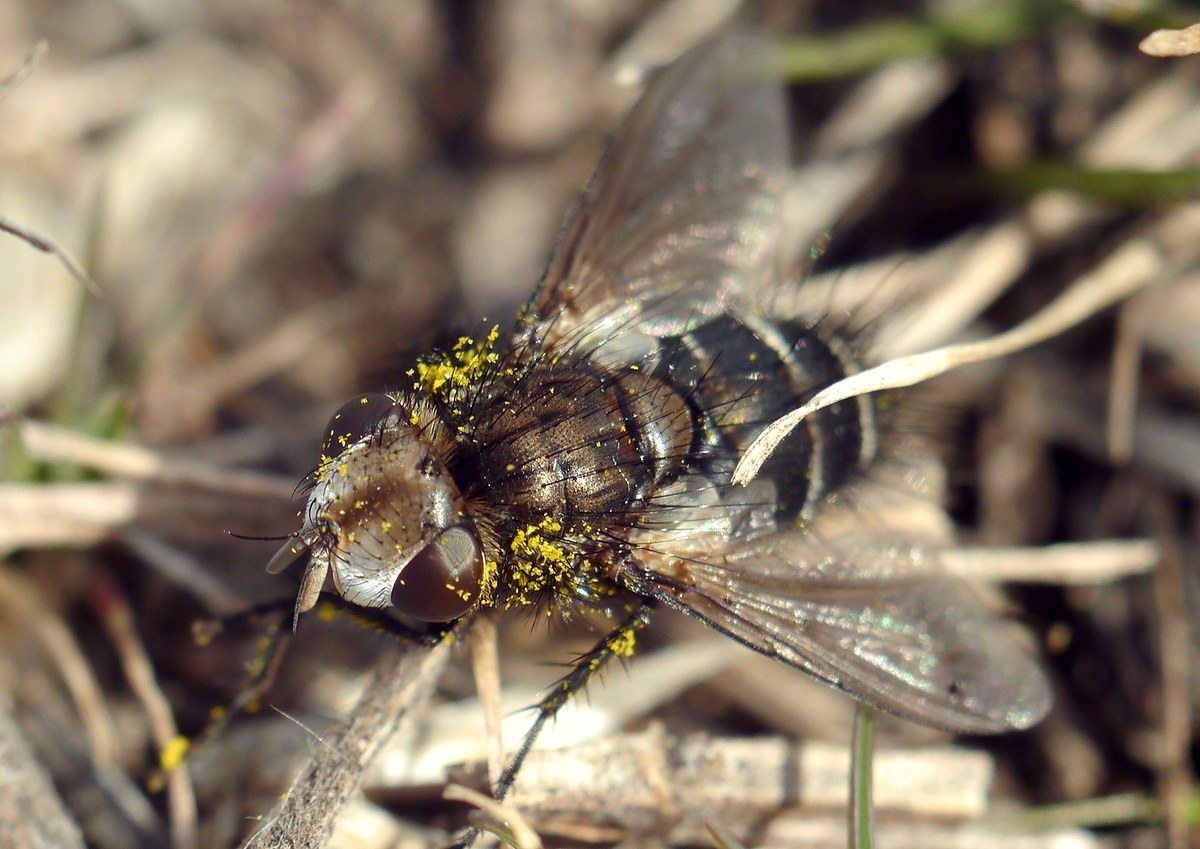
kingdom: Animalia
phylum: Arthropoda
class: Insecta
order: Diptera
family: Tachinidae
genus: Gonia
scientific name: Gonia picea
